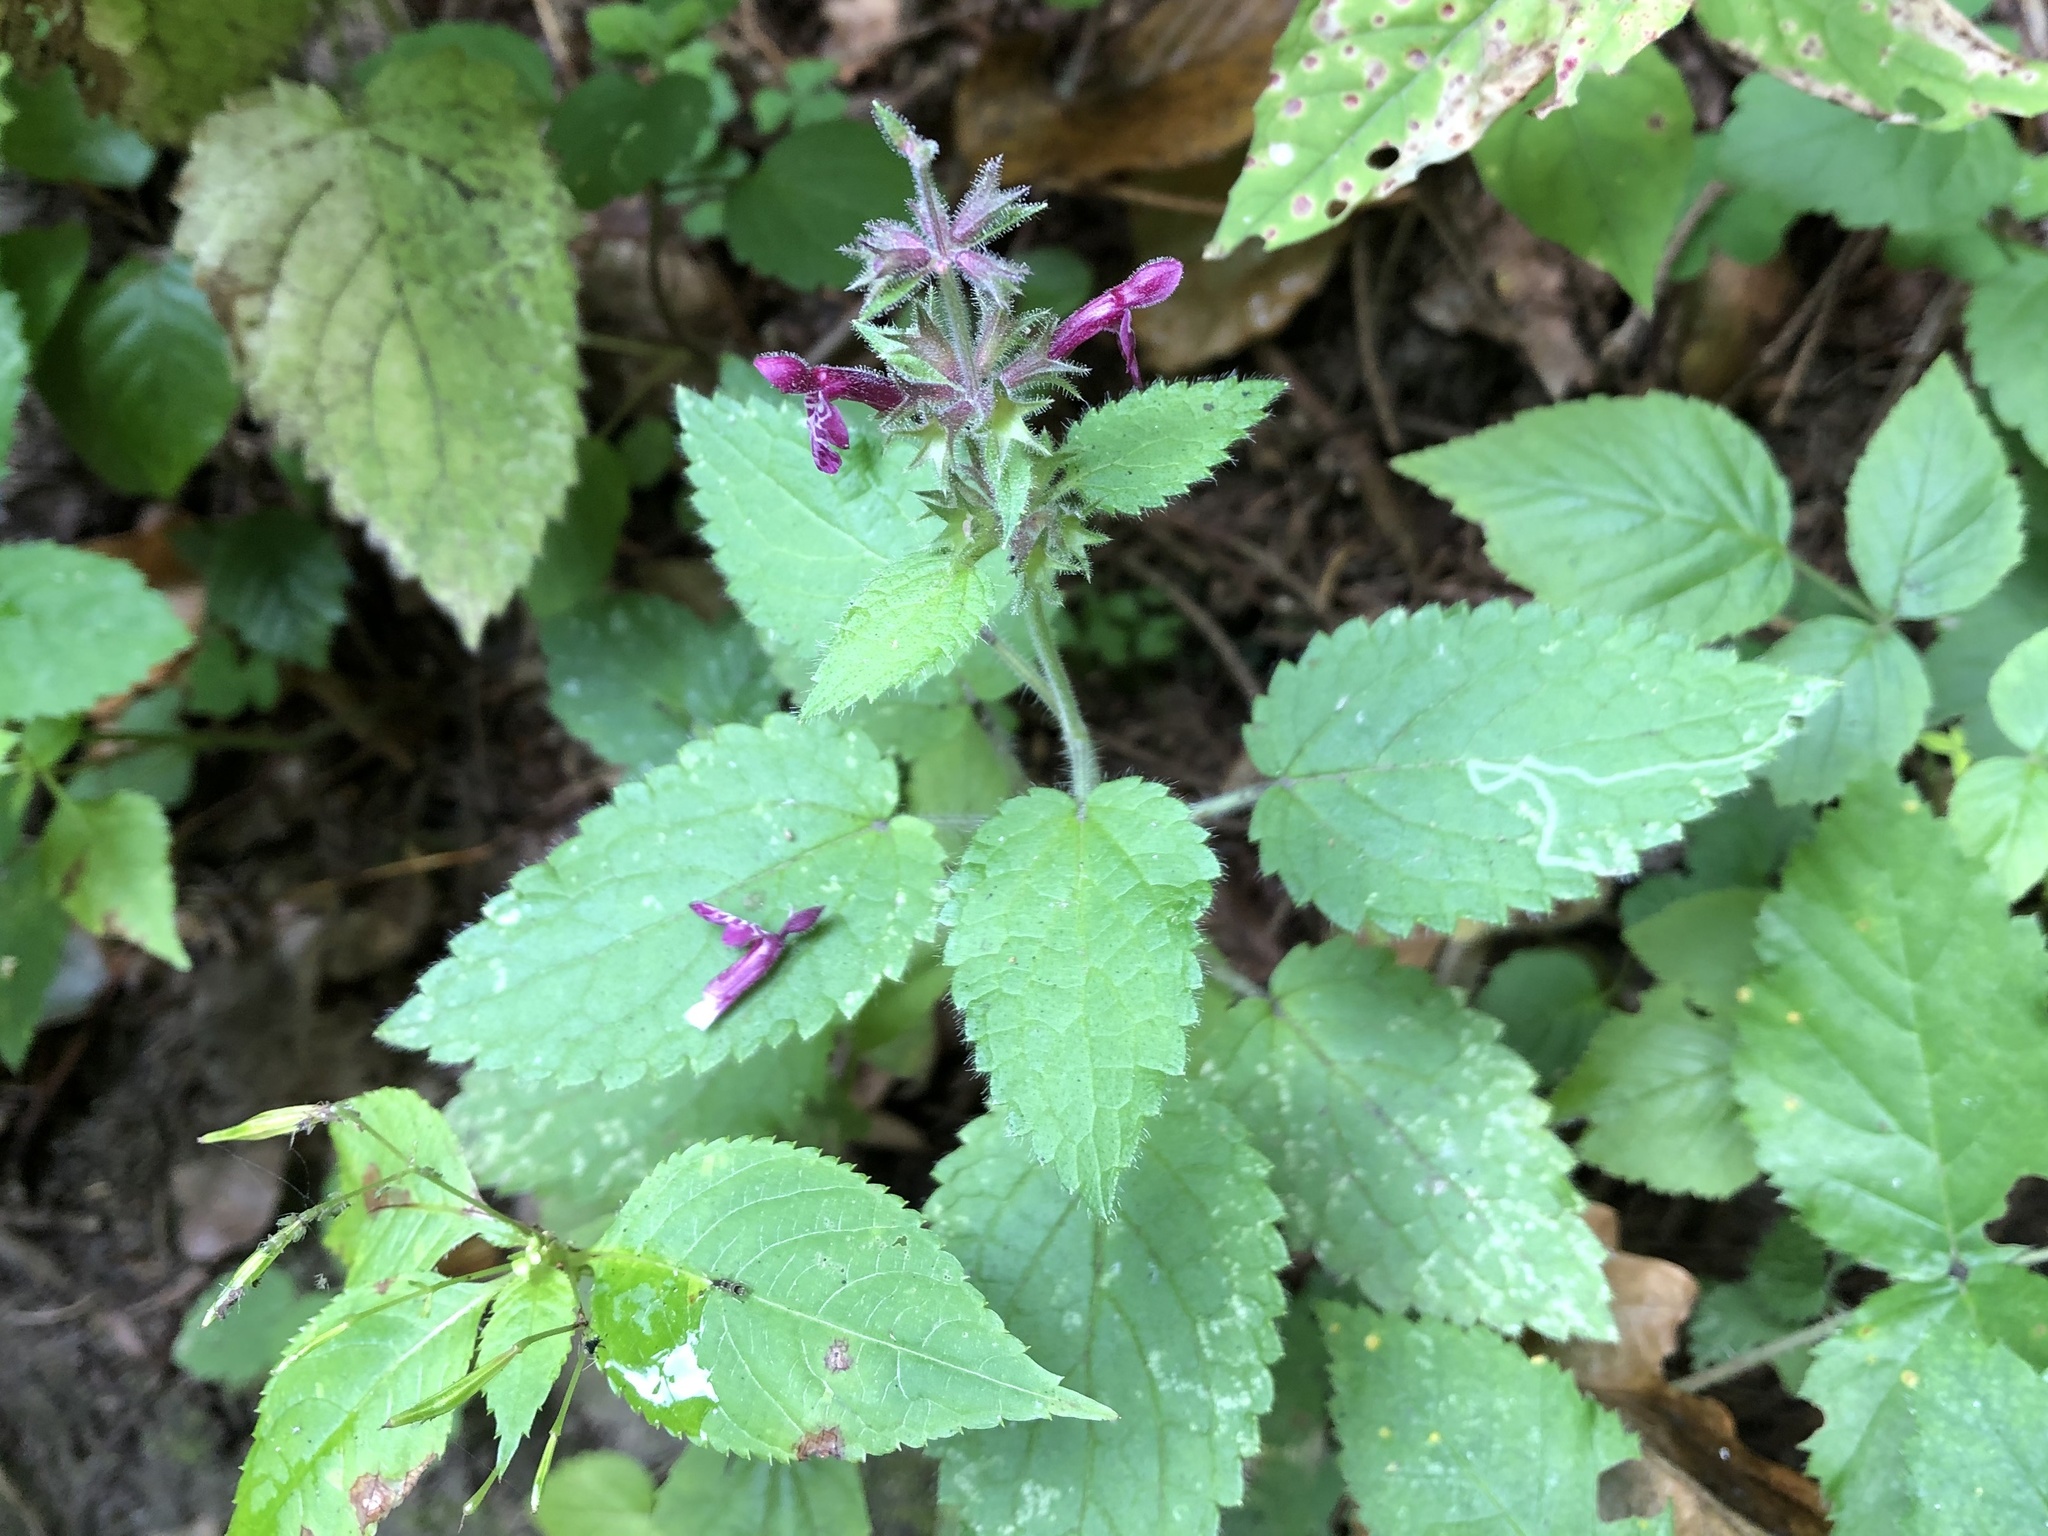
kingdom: Plantae
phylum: Tracheophyta
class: Magnoliopsida
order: Lamiales
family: Lamiaceae
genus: Stachys
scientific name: Stachys sylvatica
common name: Hedge woundwort
